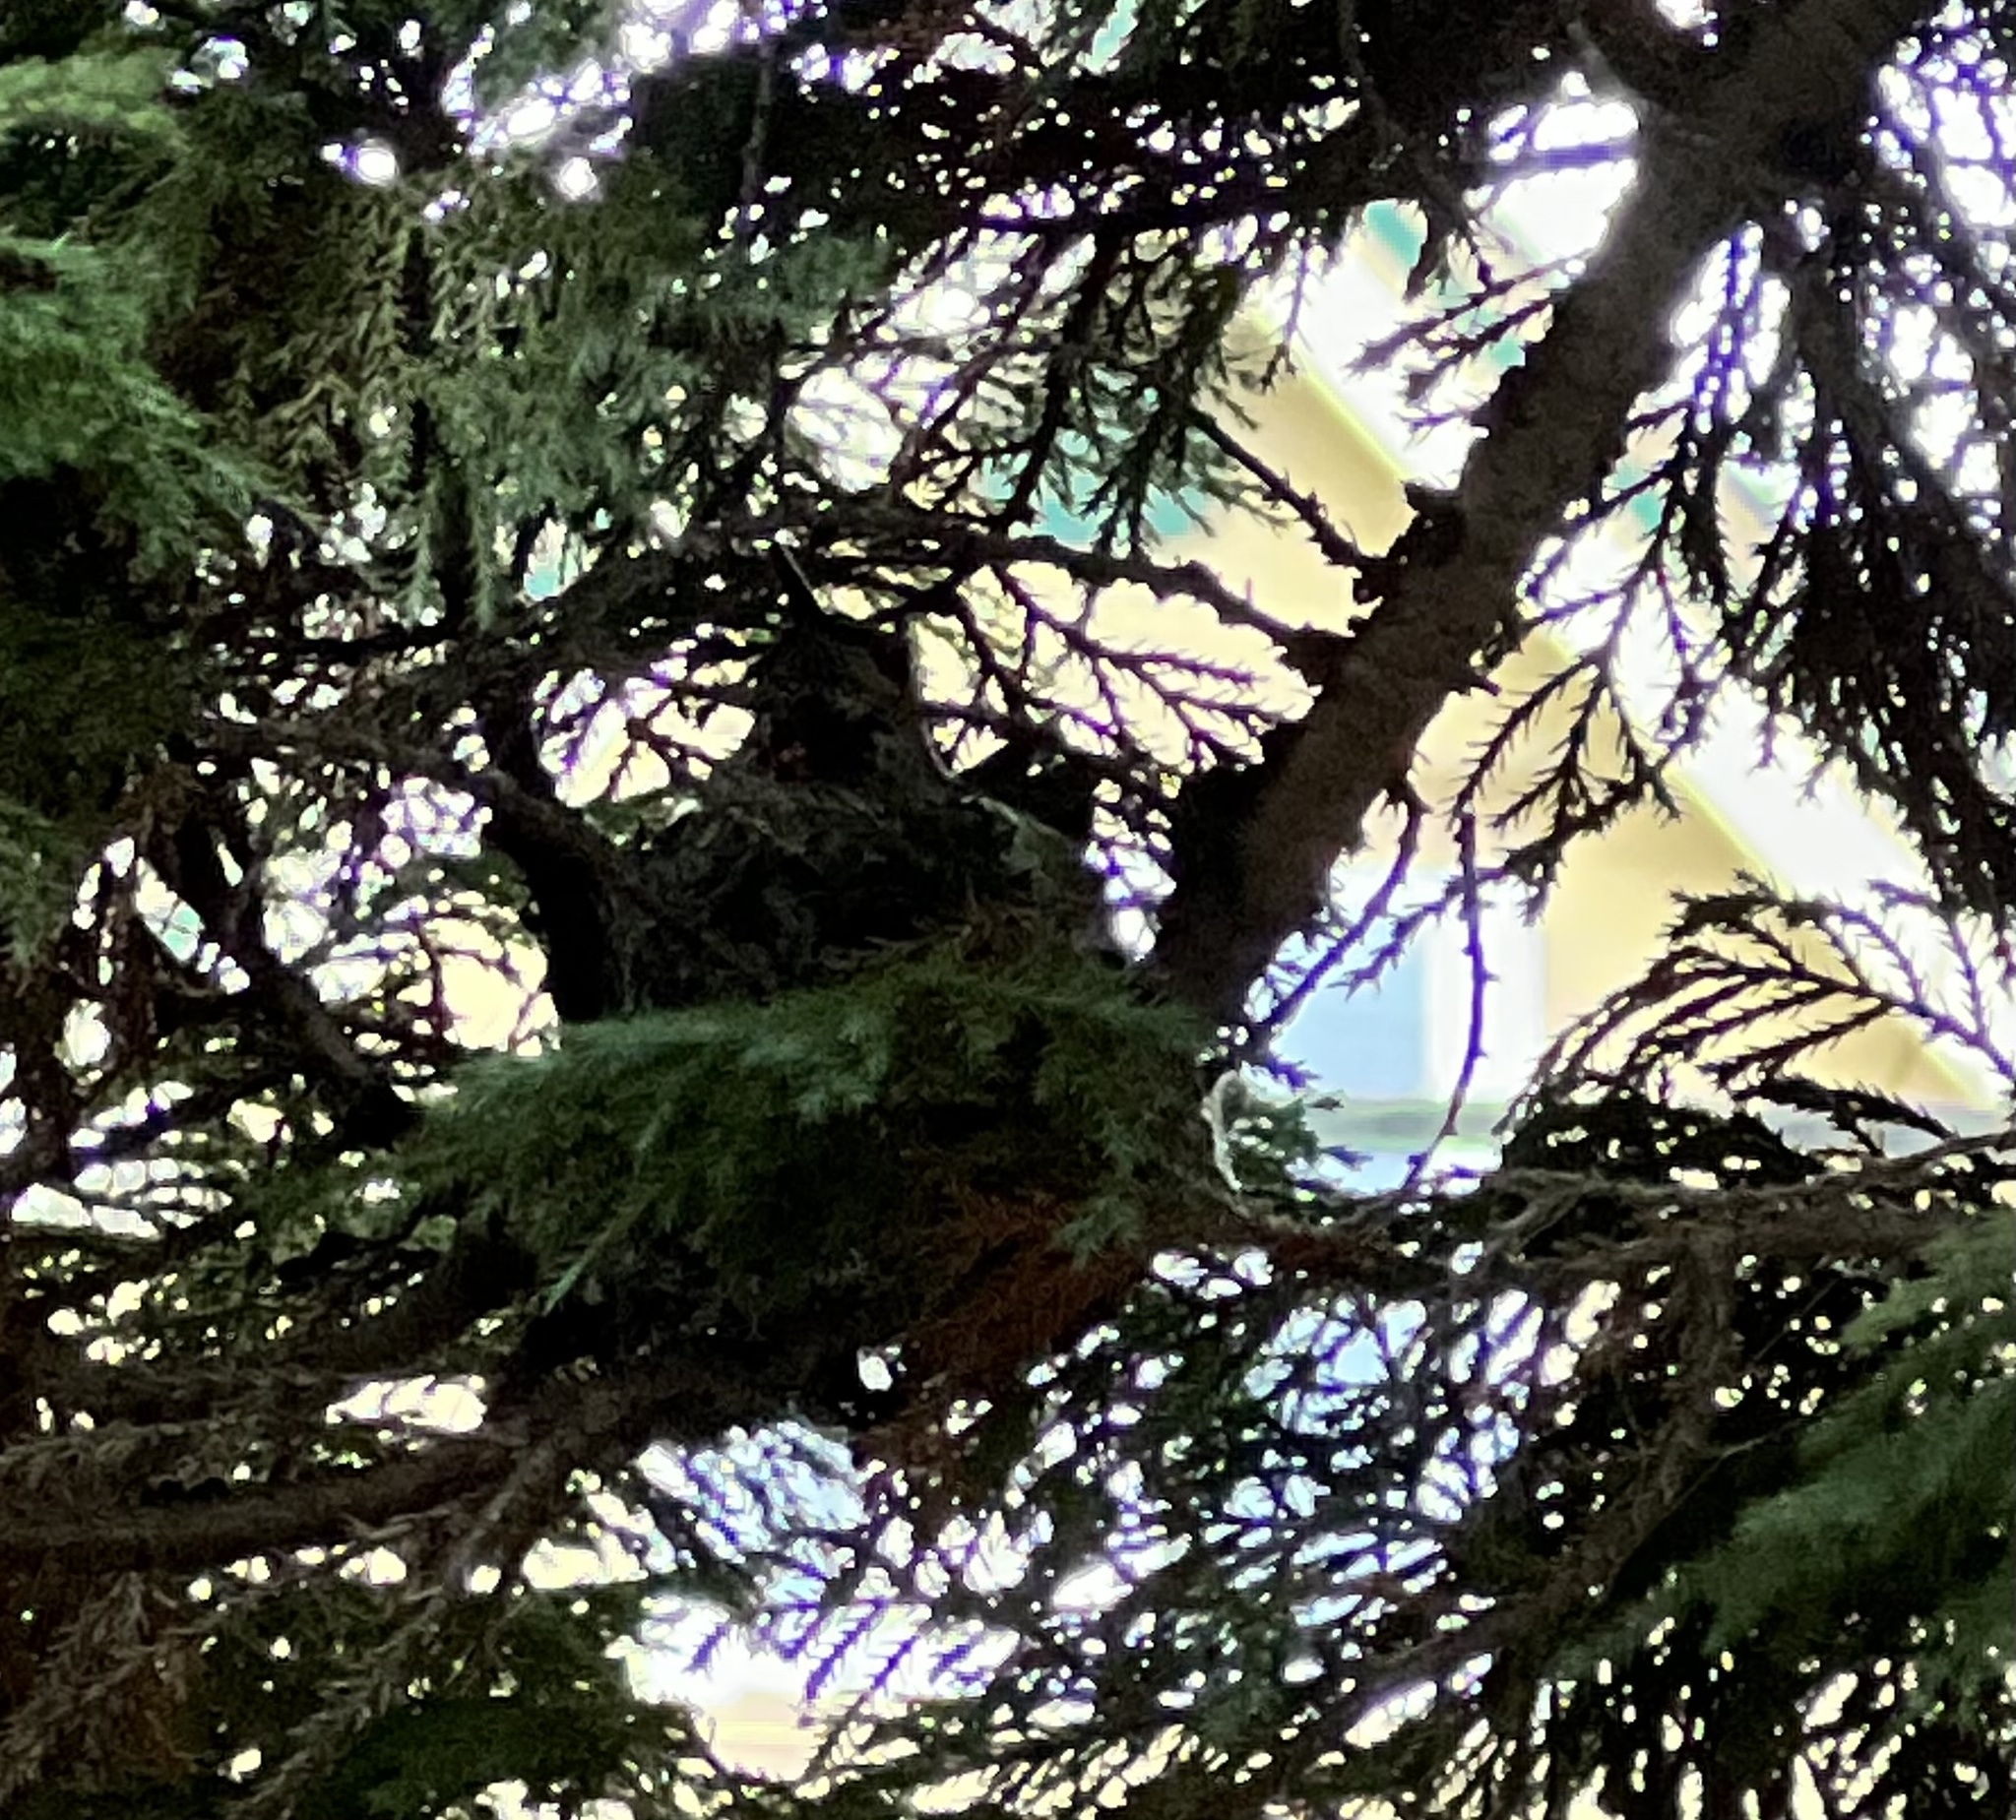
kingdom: Animalia
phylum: Chordata
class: Aves
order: Apodiformes
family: Trochilidae
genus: Calypte
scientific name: Calypte anna
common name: Anna's hummingbird
